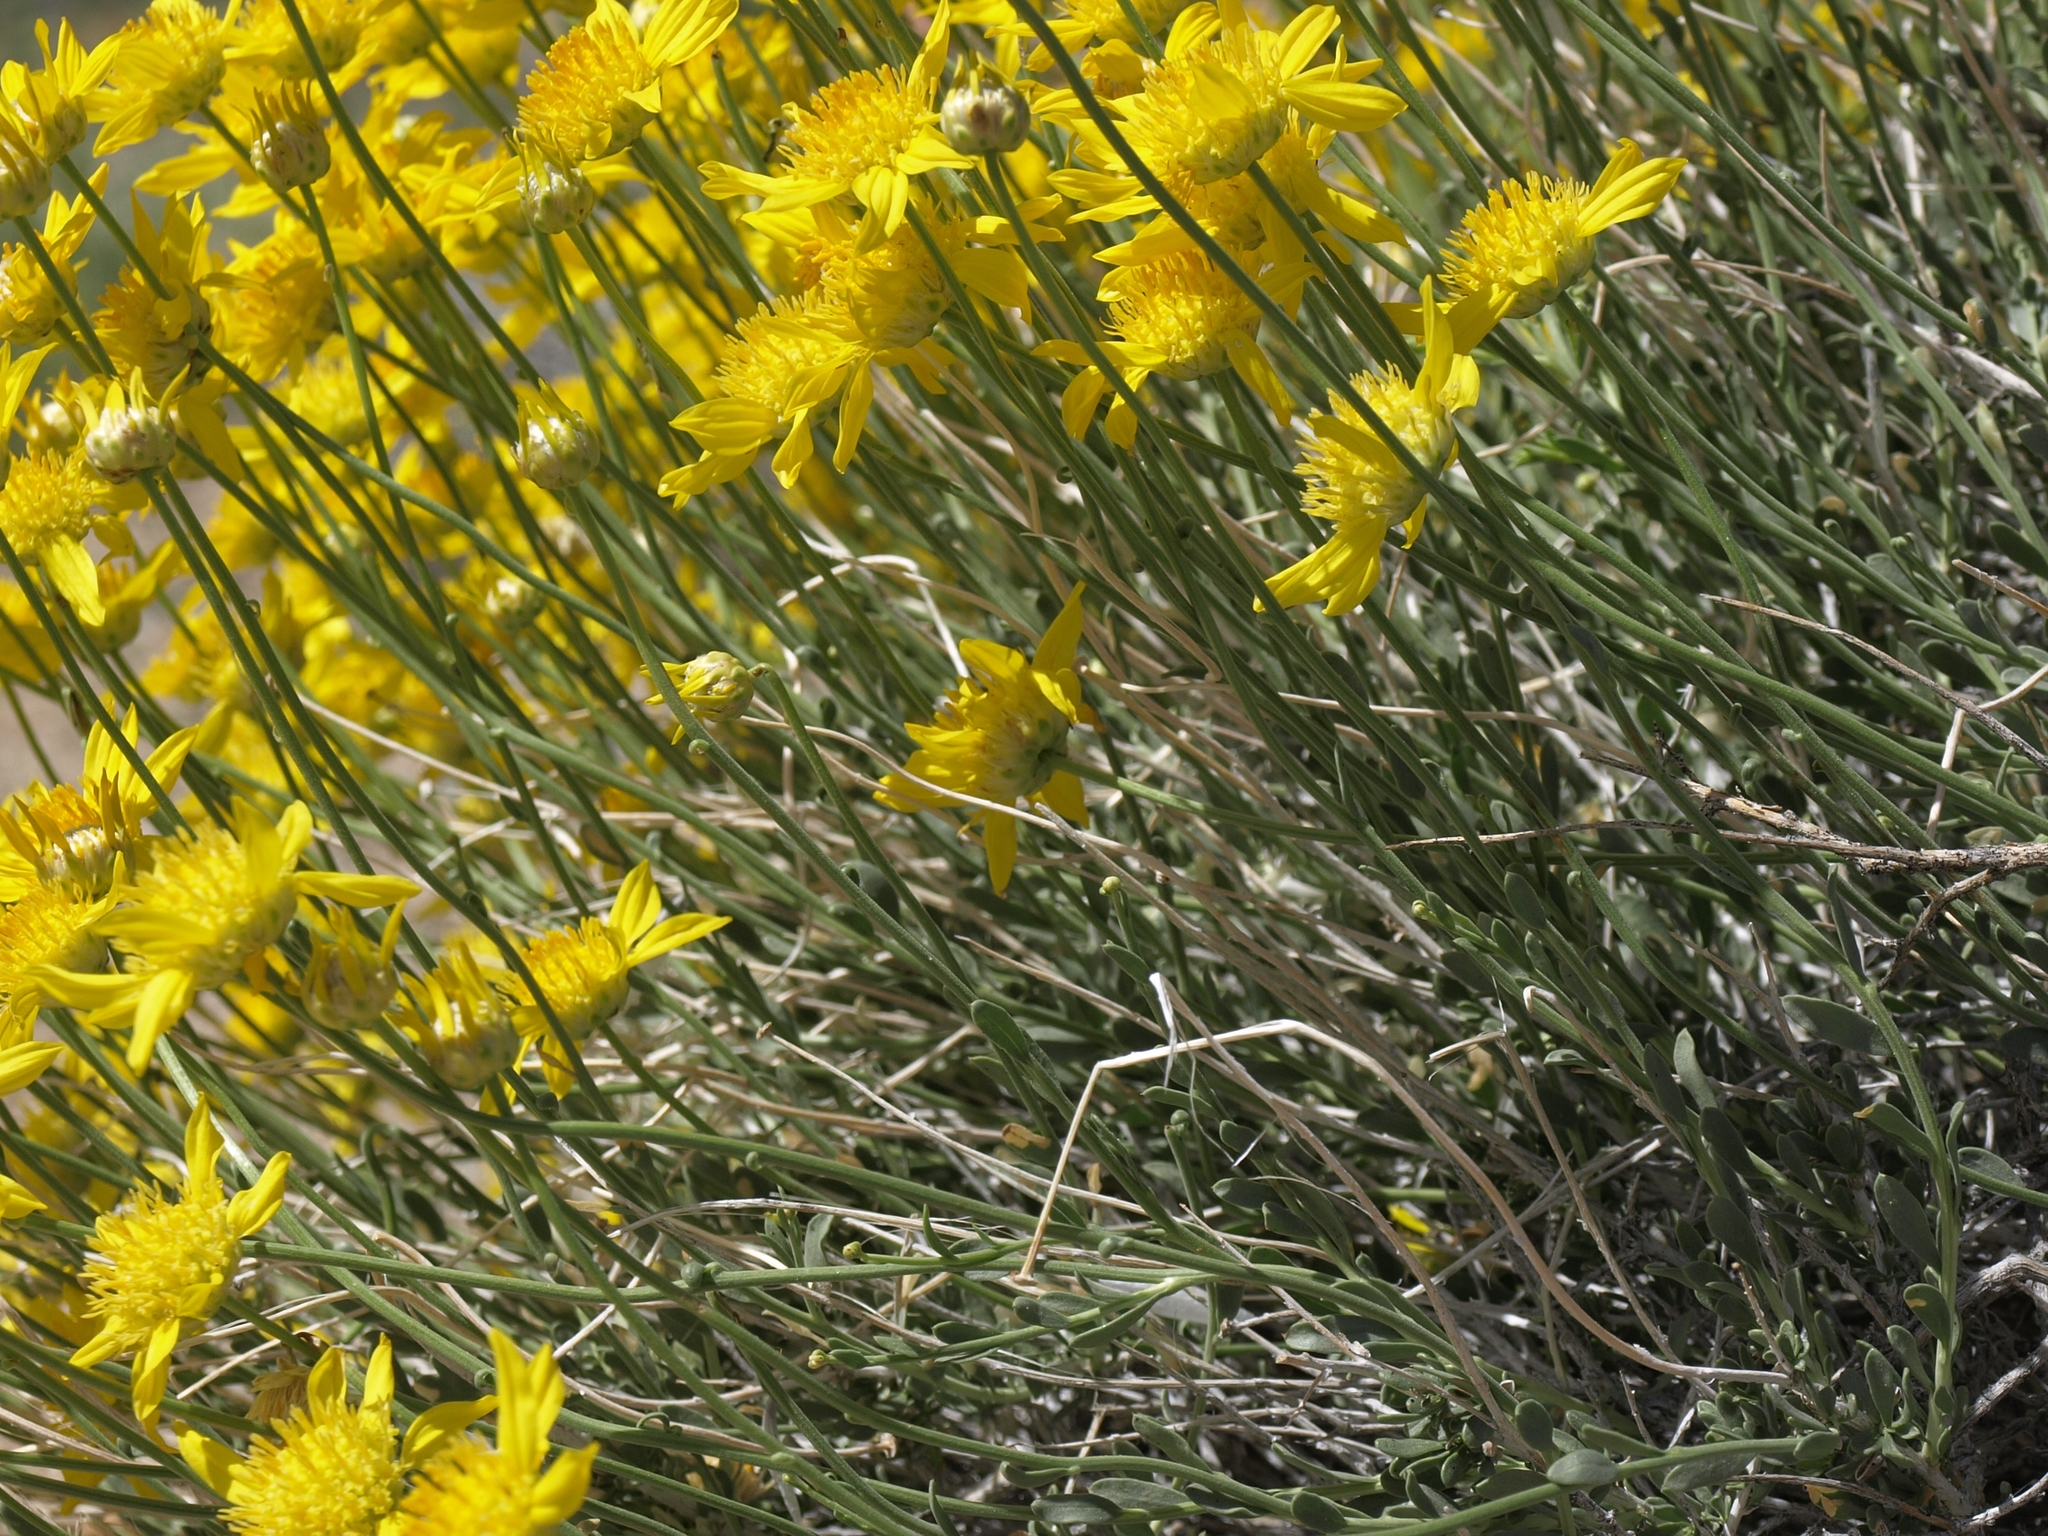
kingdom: Plantae
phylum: Tracheophyta
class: Magnoliopsida
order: Asterales
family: Asteraceae
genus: Acamptopappus
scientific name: Acamptopappus shockleyi
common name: Shockley's goldenhead
